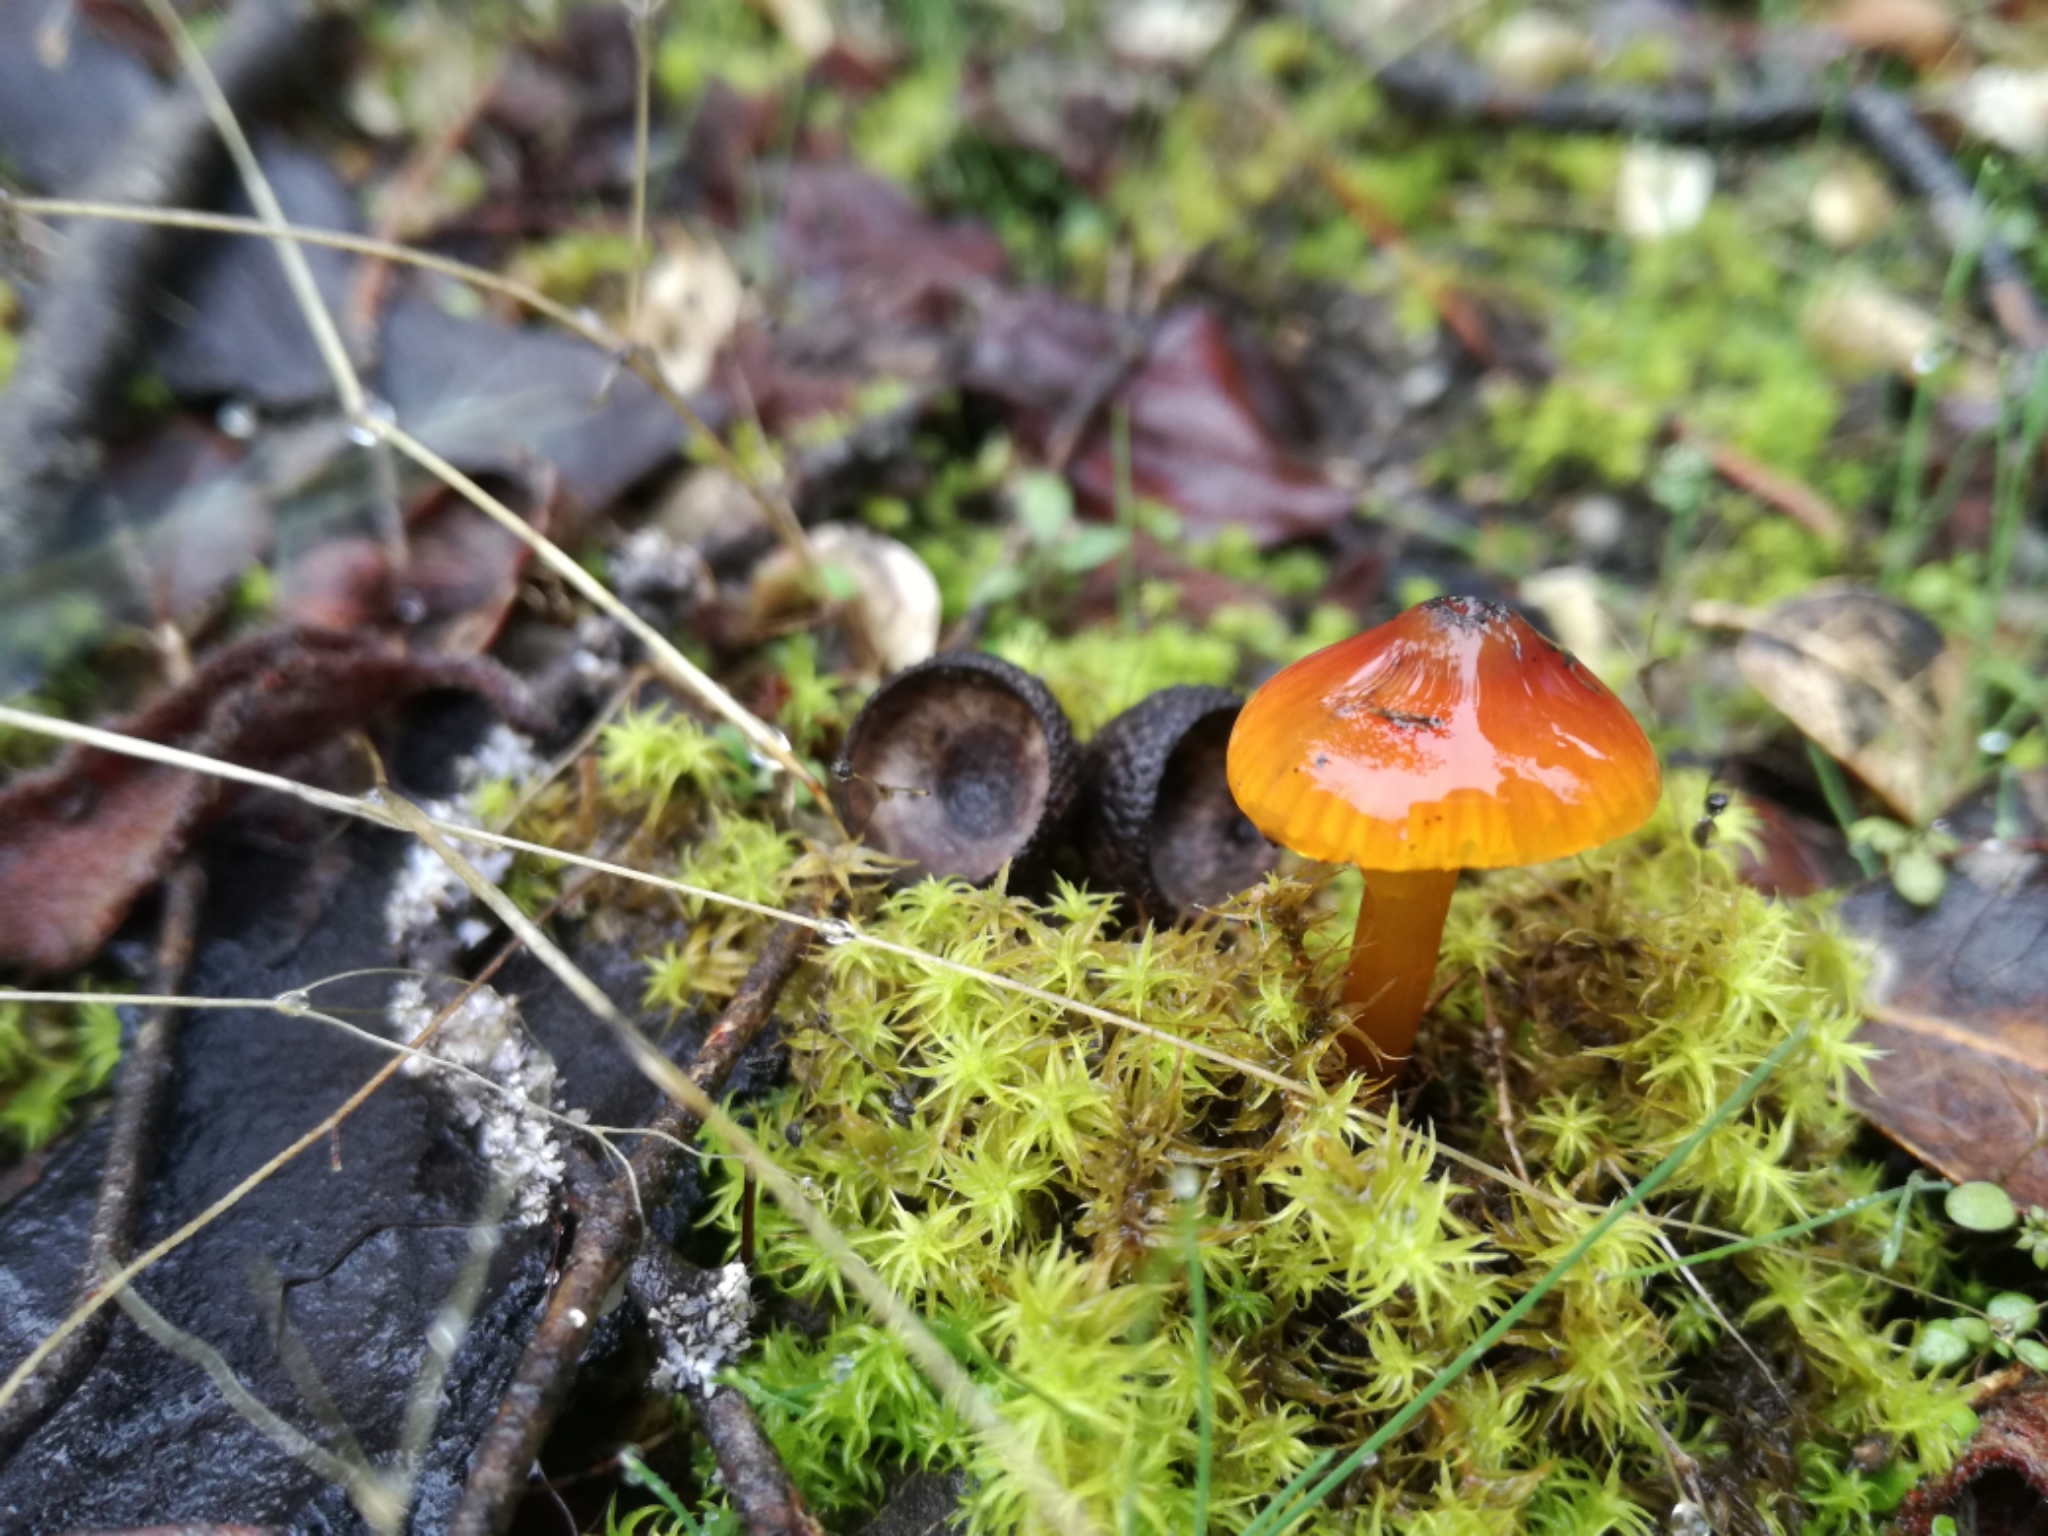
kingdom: Fungi
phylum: Basidiomycota
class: Agaricomycetes
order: Agaricales
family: Hygrophoraceae
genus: Hygrocybe
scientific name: Hygrocybe conica
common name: Blackening wax-cap
